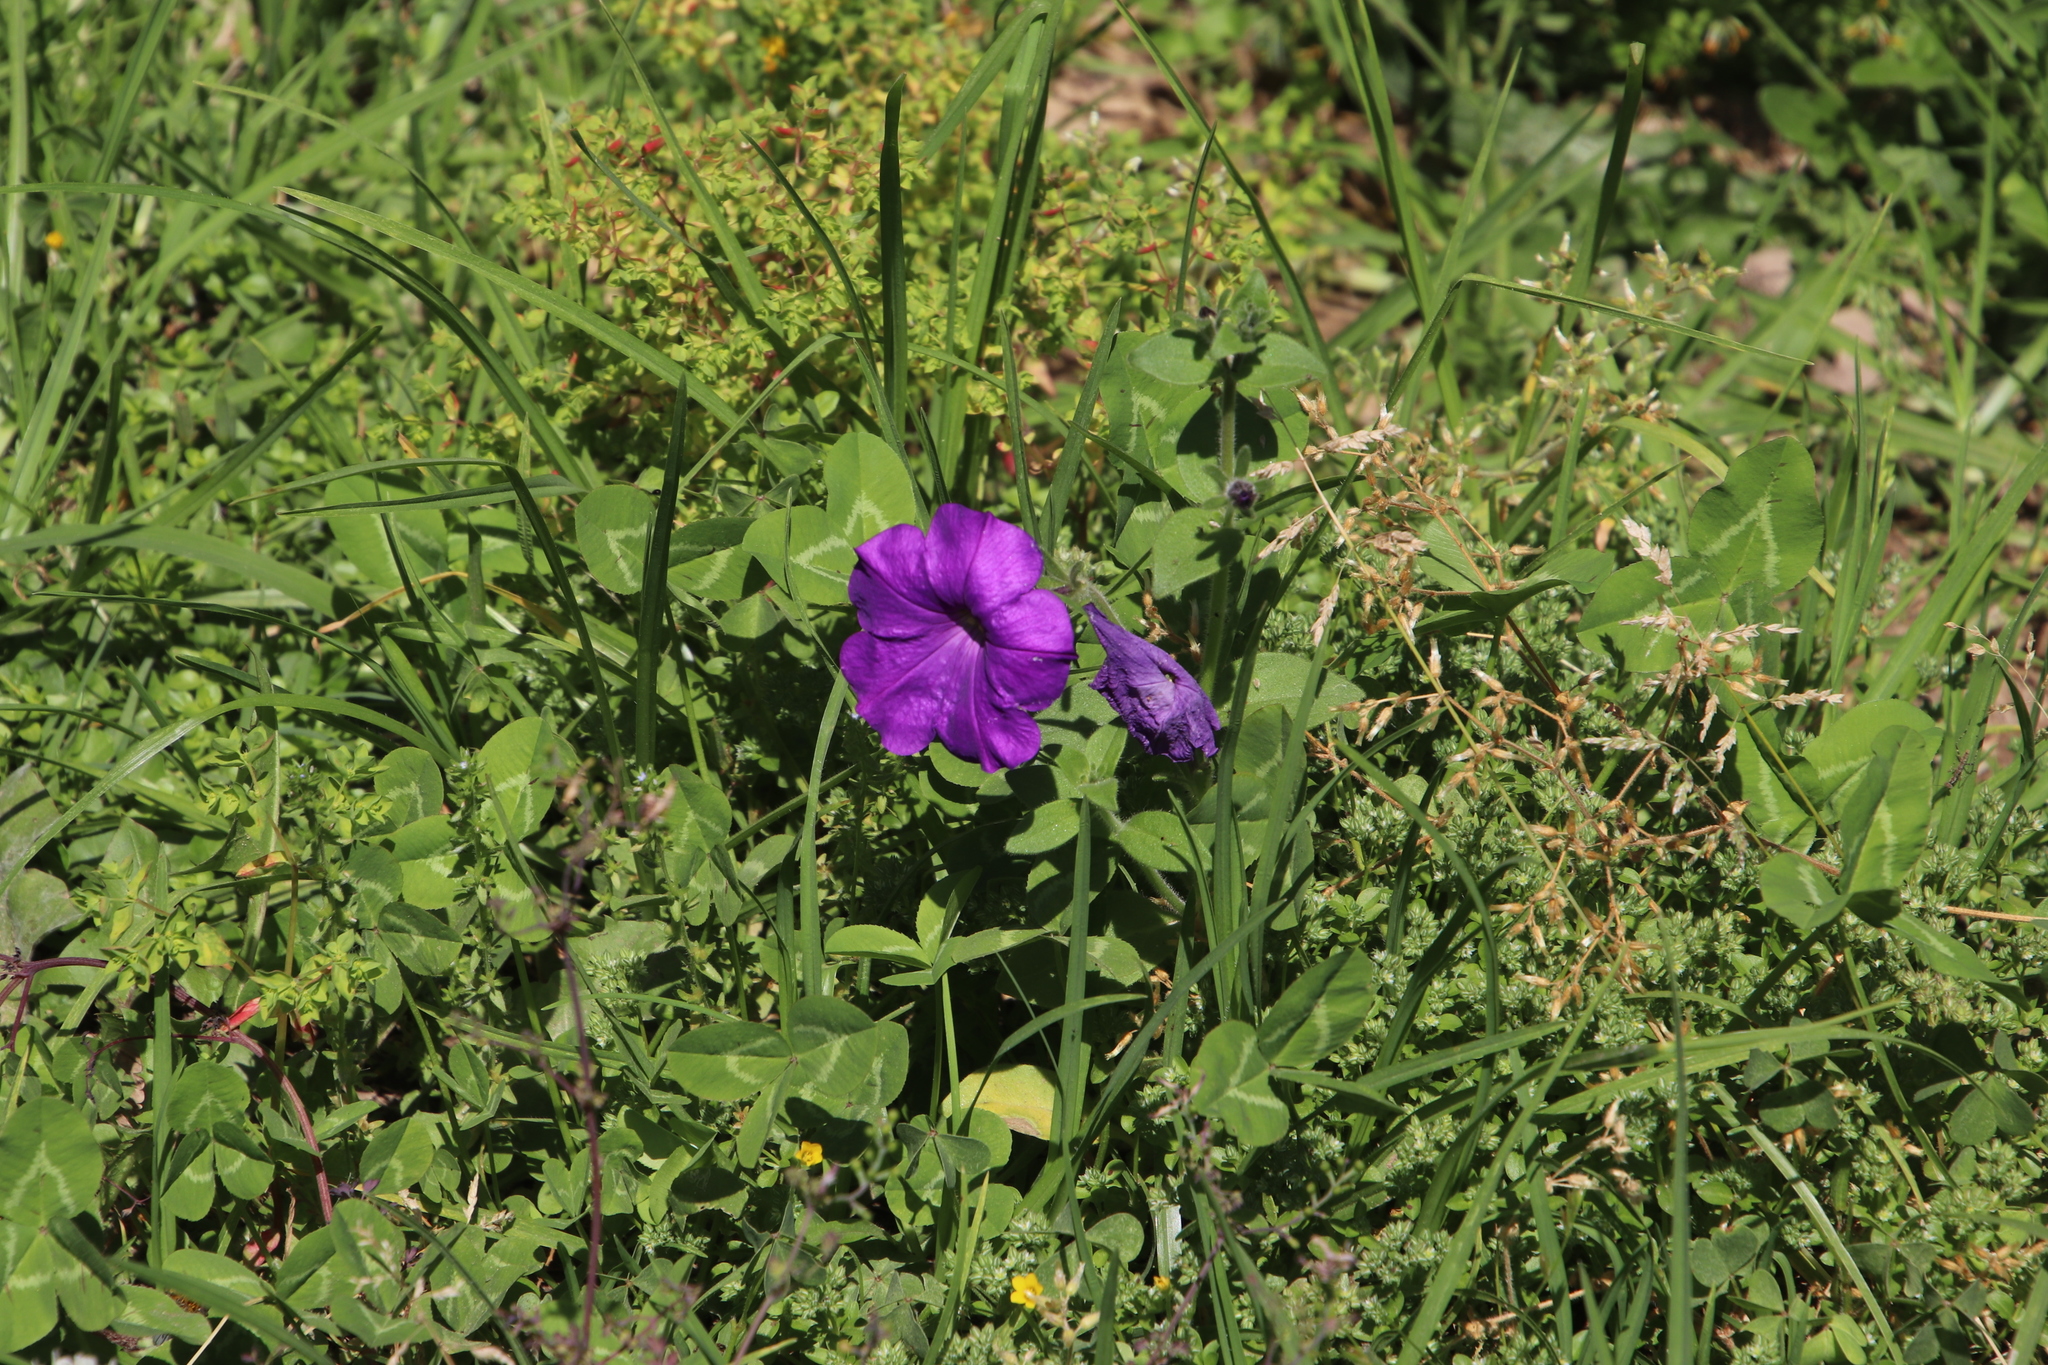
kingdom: Plantae
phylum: Tracheophyta
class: Magnoliopsida
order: Solanales
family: Solanaceae
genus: Petunia
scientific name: Petunia atkinsiana
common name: Petunia
